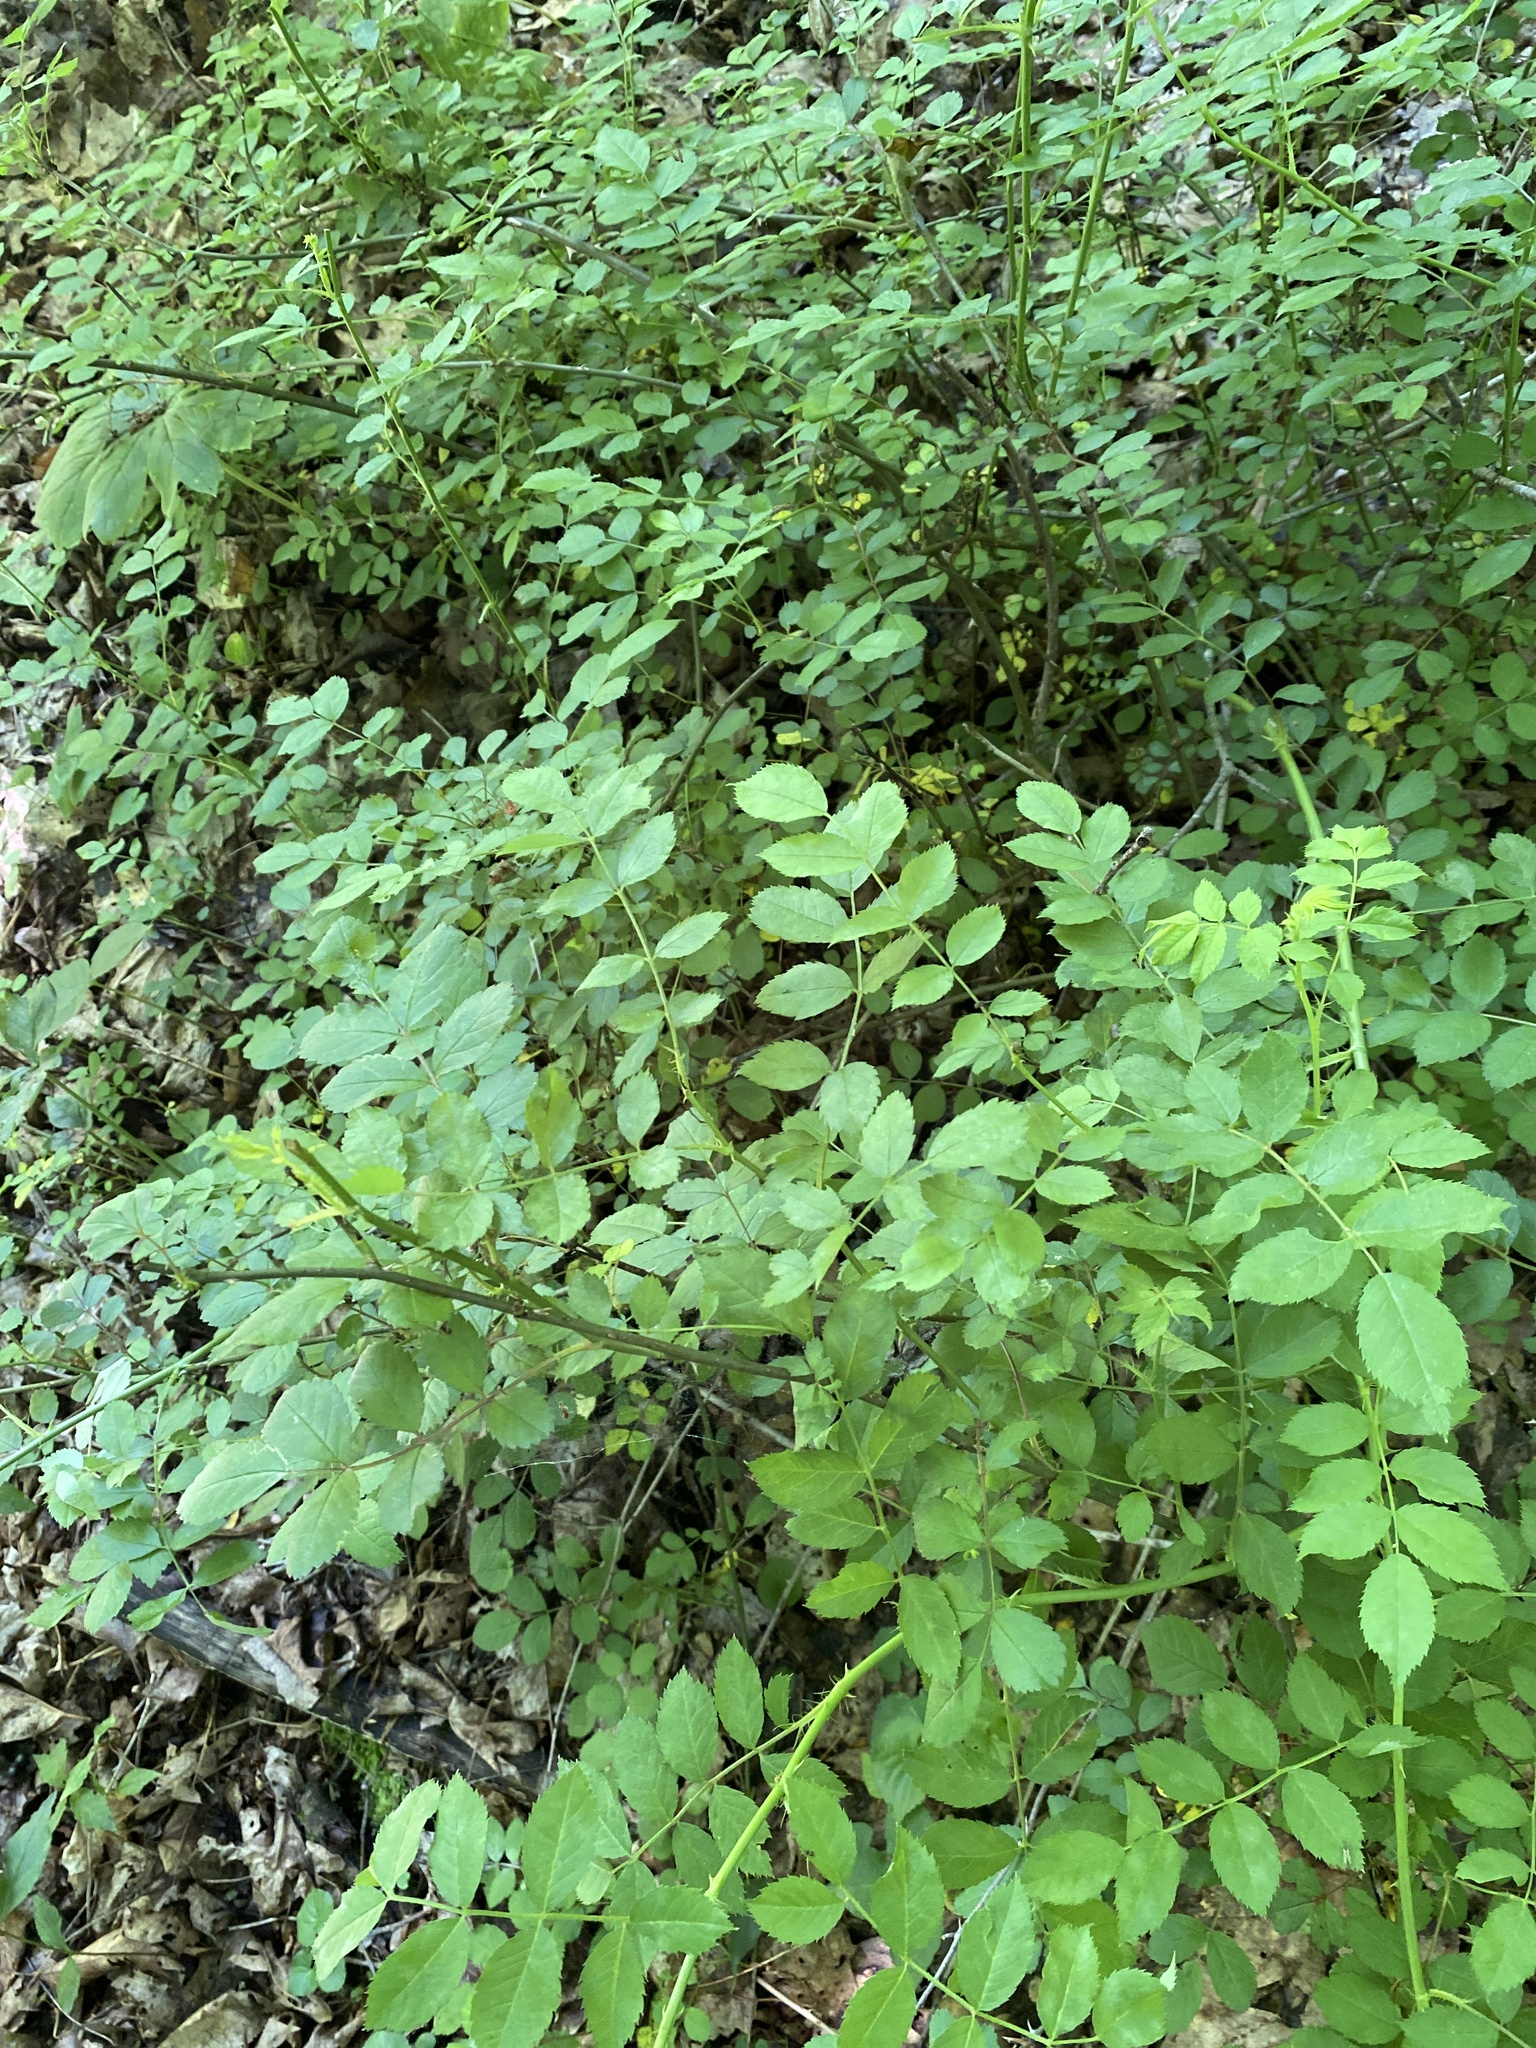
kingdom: Plantae
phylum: Tracheophyta
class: Magnoliopsida
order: Rosales
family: Rosaceae
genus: Rosa
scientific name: Rosa multiflora
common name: Multiflora rose
